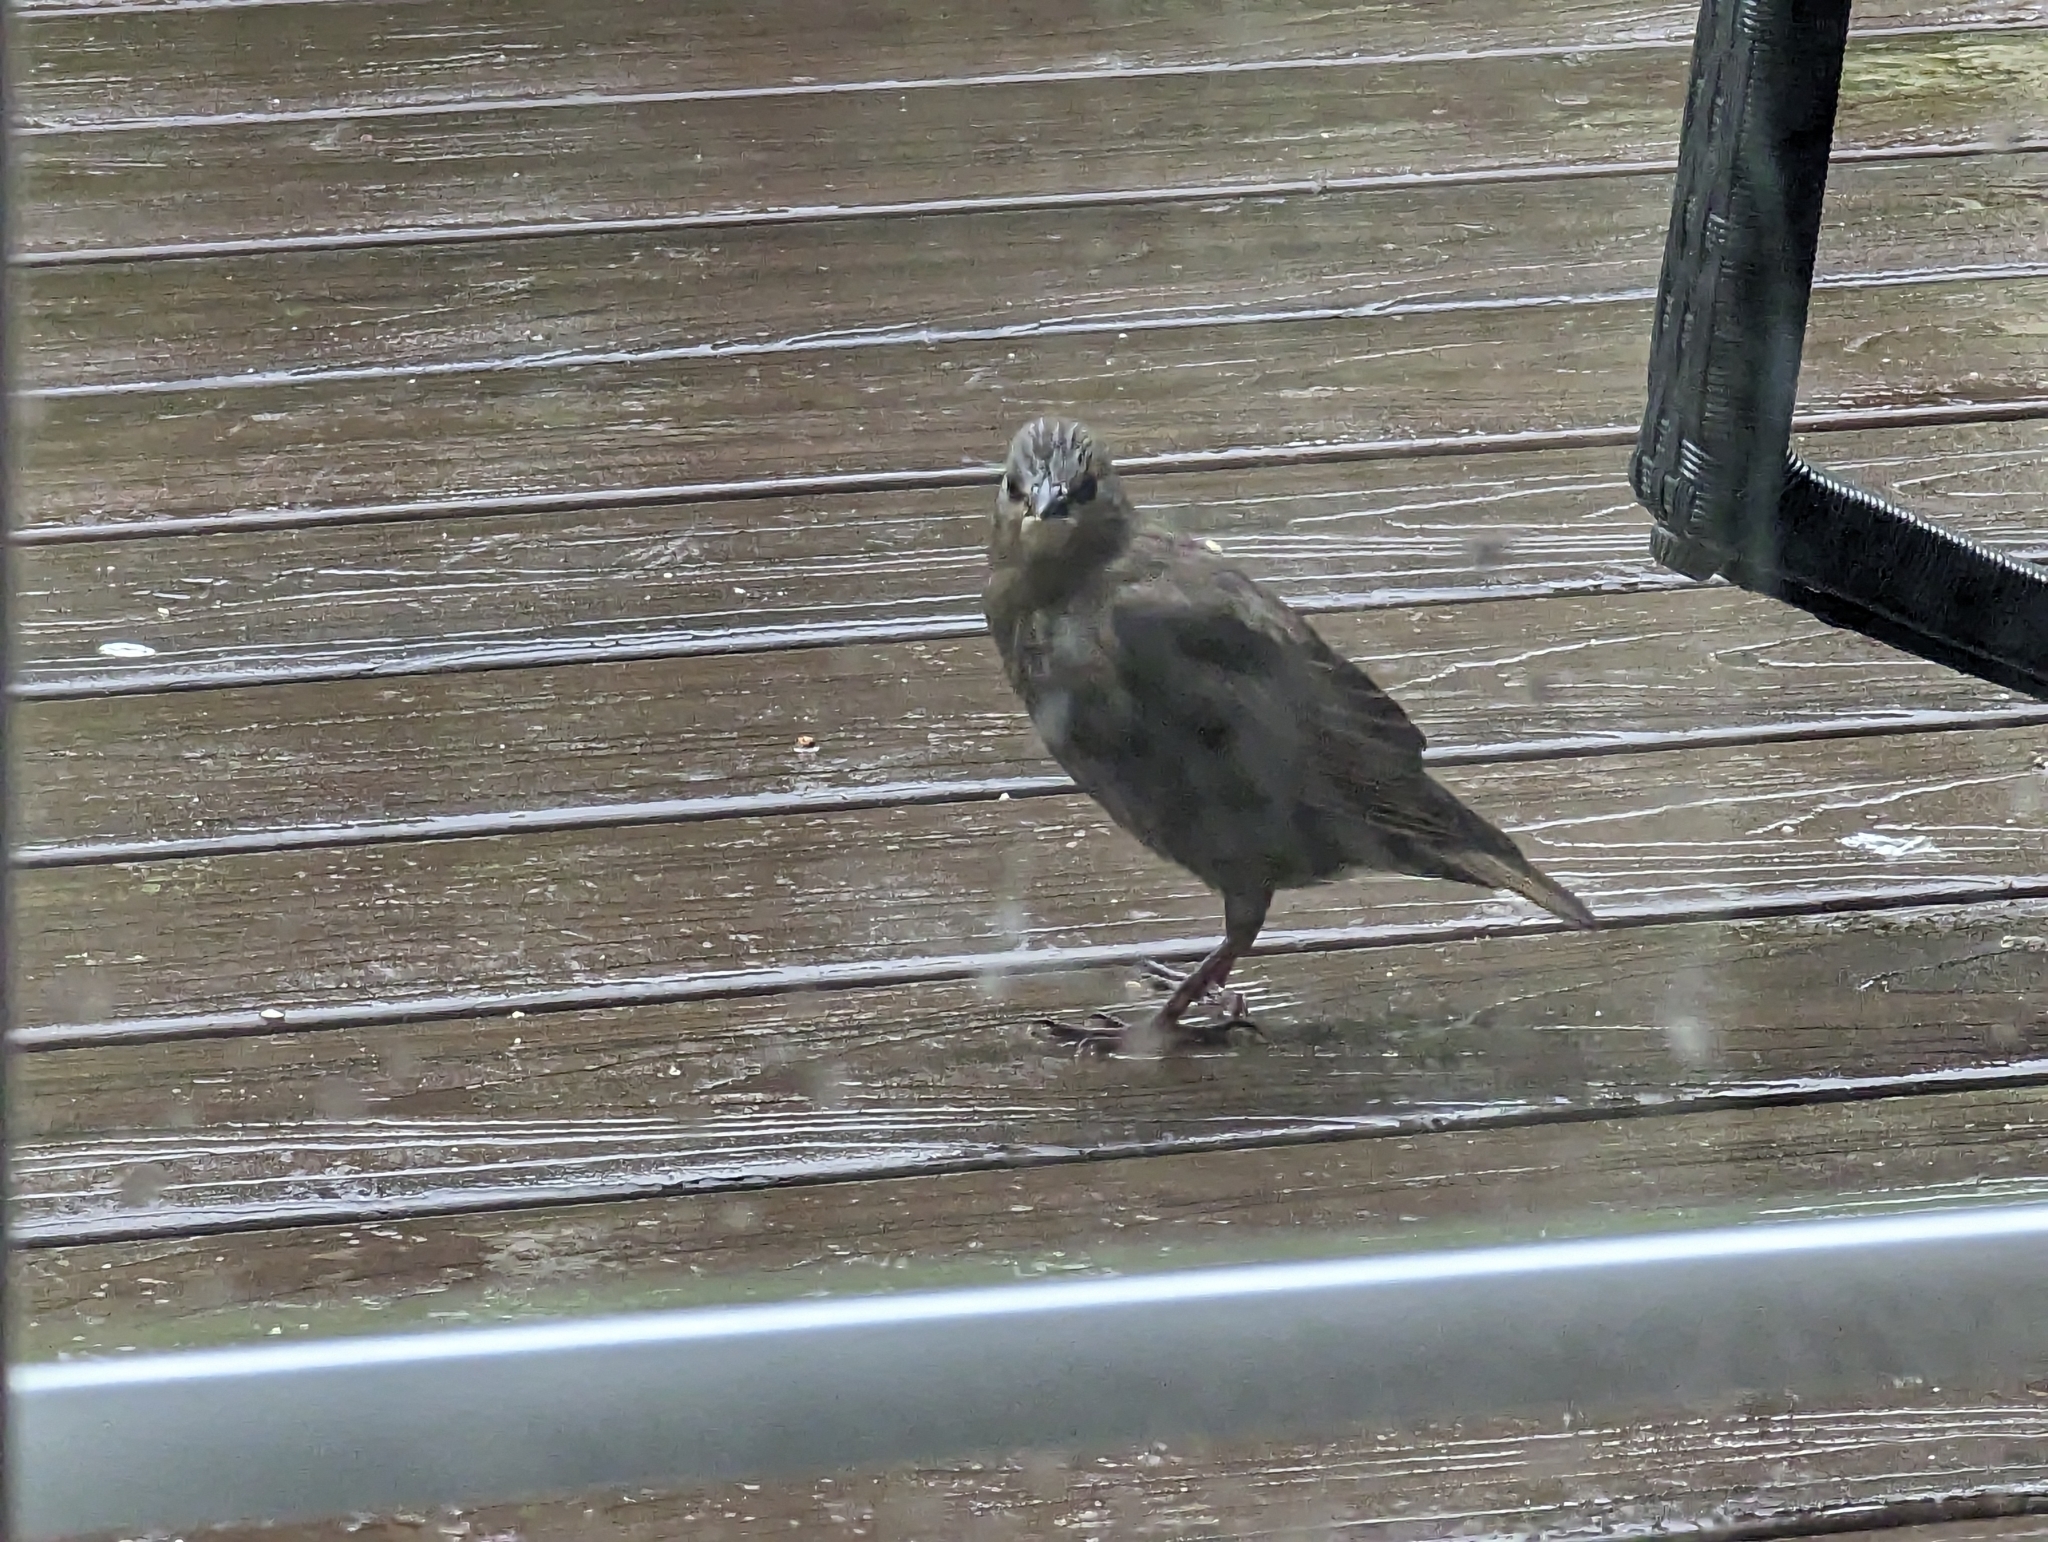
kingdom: Animalia
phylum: Chordata
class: Aves
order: Passeriformes
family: Sturnidae
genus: Sturnus
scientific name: Sturnus vulgaris
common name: Common starling
